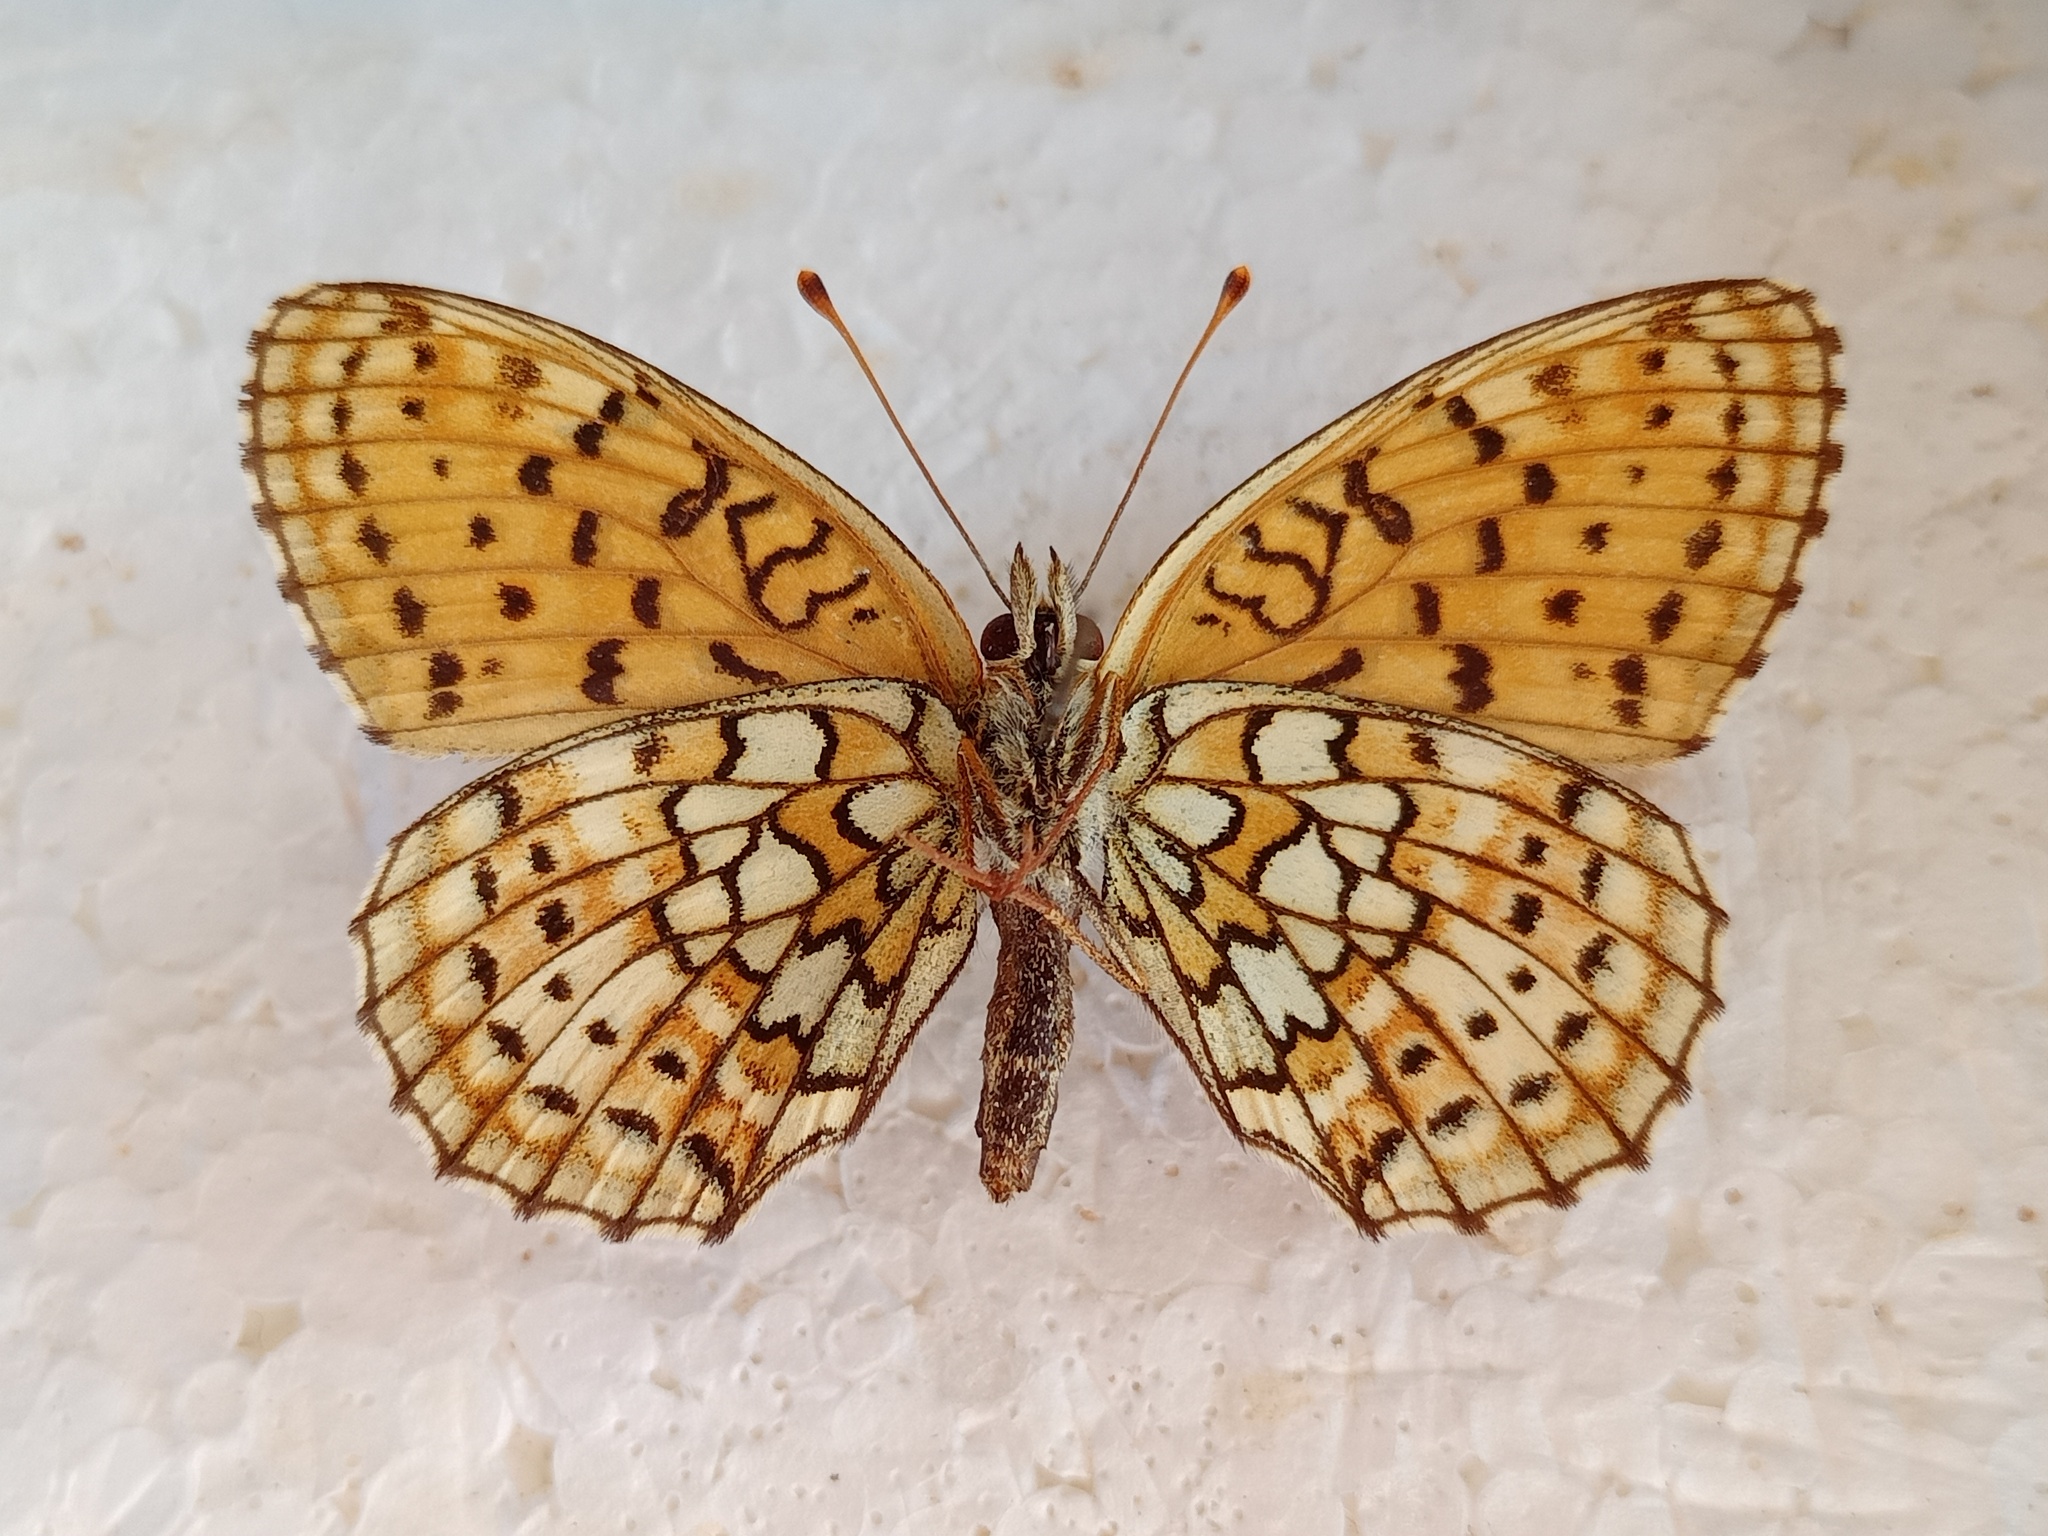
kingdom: Animalia
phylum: Arthropoda
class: Insecta
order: Lepidoptera
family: Nymphalidae
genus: Brenthis
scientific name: Brenthis hecate
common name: Twin-spot fritillary
